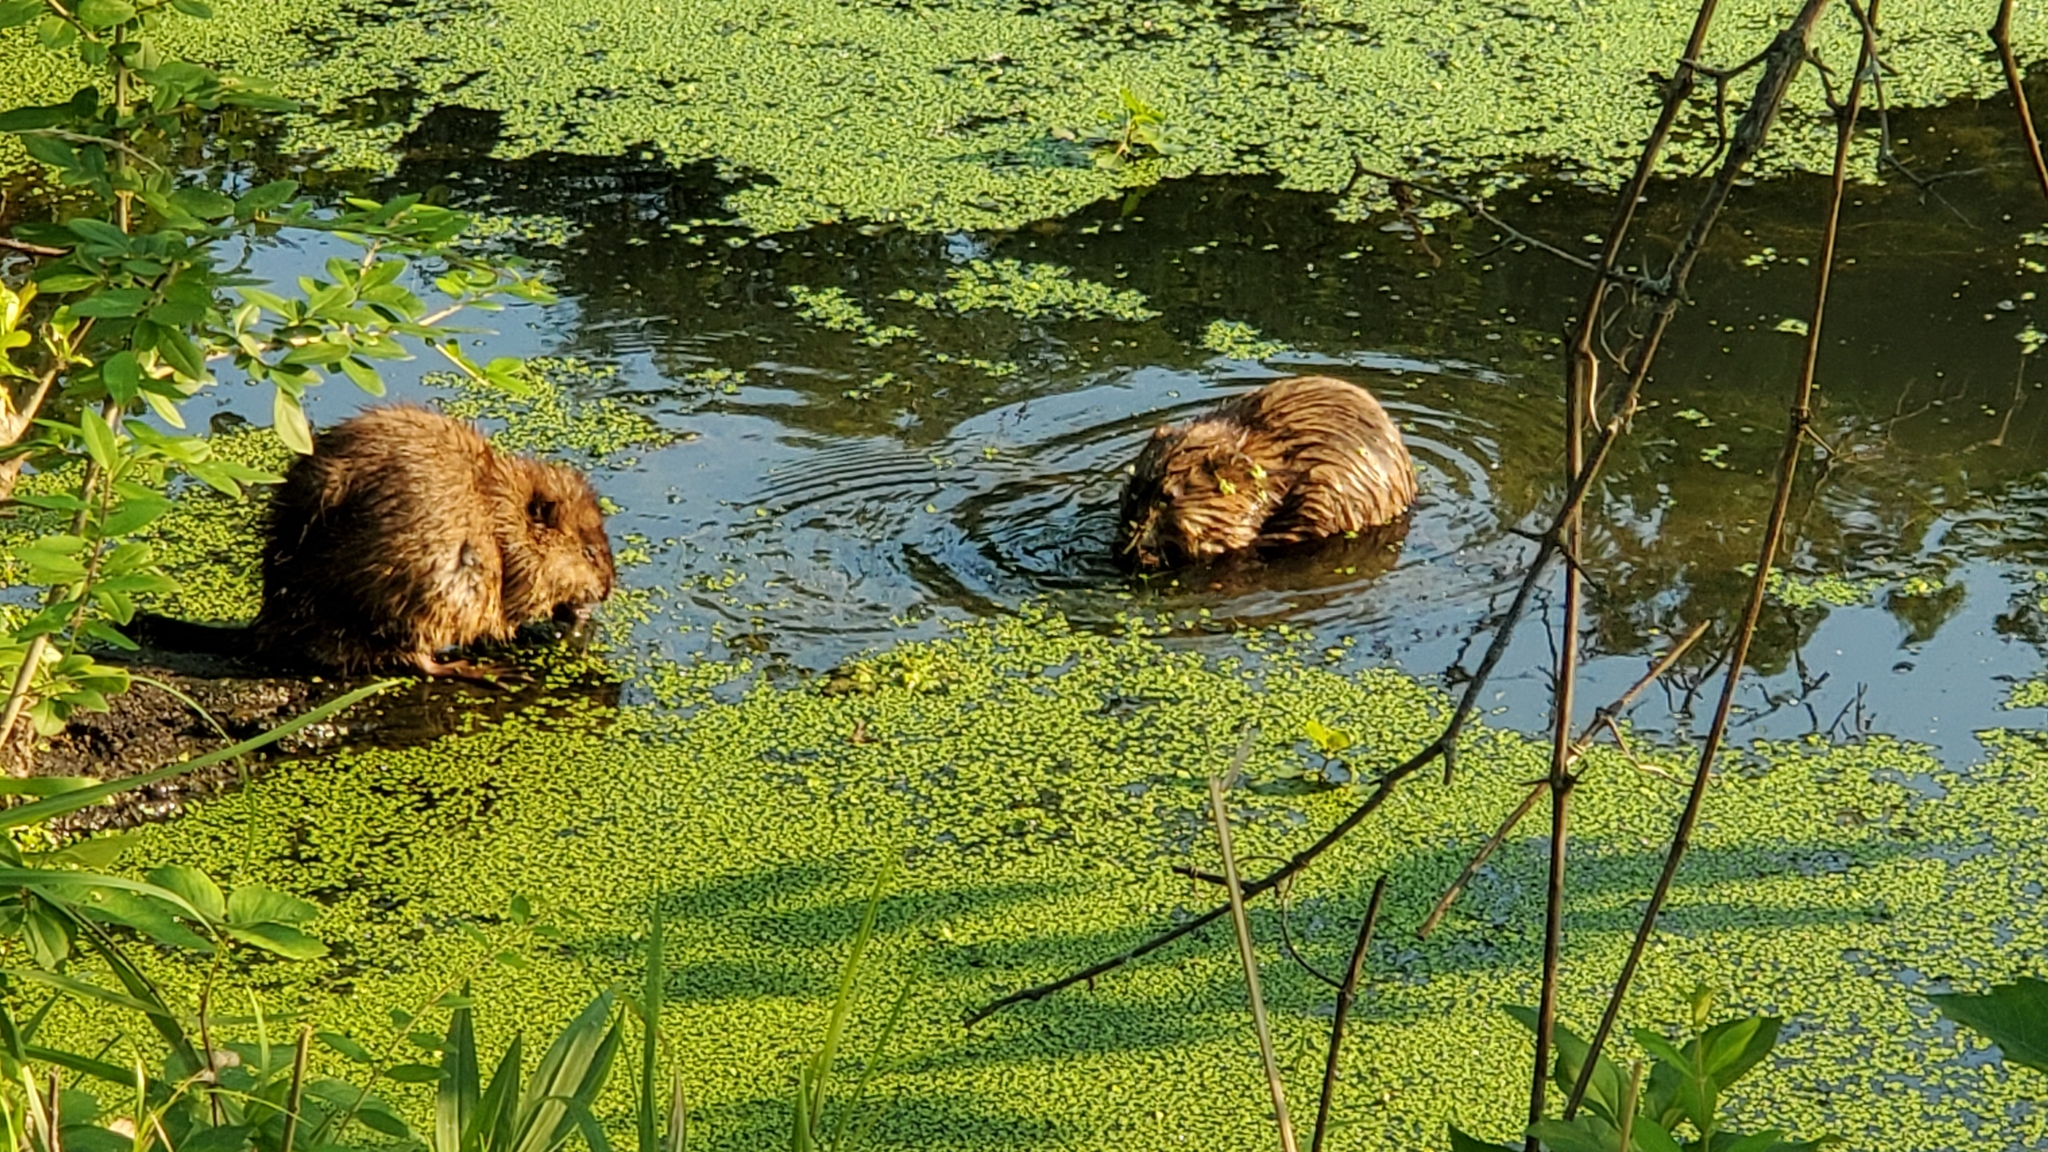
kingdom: Animalia
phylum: Chordata
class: Mammalia
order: Rodentia
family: Cricetidae
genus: Ondatra
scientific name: Ondatra zibethicus
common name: Muskrat
